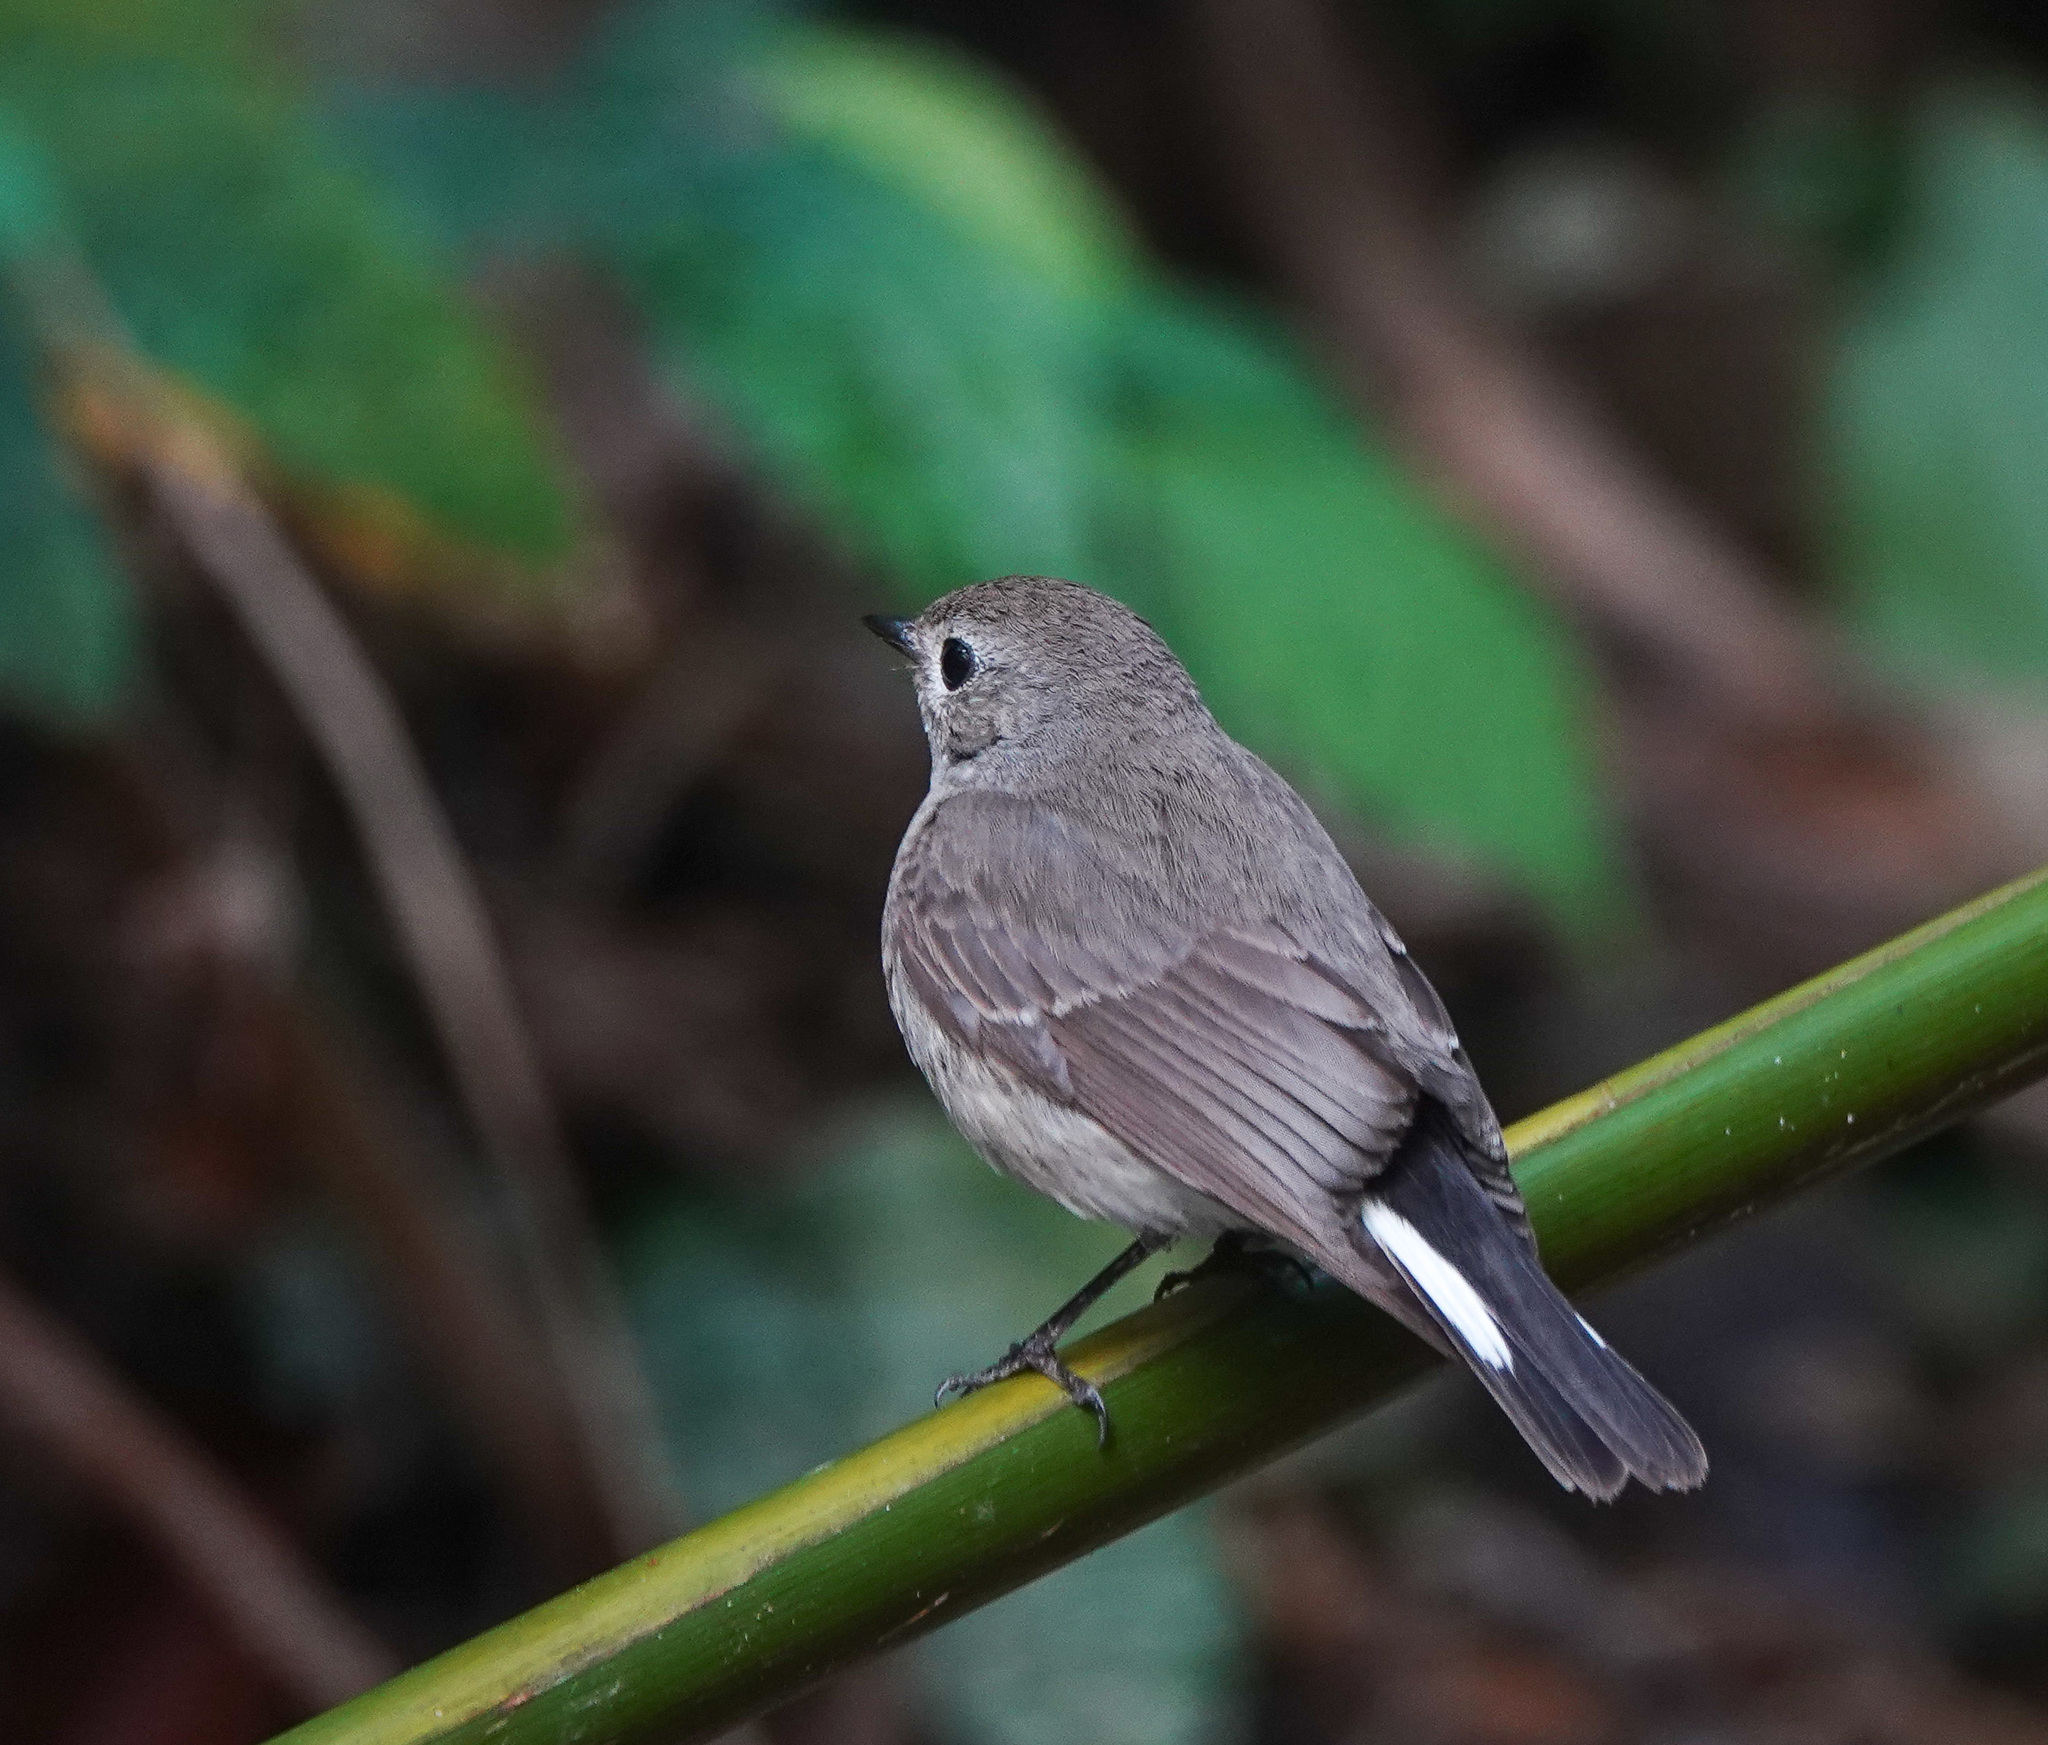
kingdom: Animalia
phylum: Chordata
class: Aves
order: Passeriformes
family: Muscicapidae
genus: Ficedula
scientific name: Ficedula albicilla
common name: Taiga flycatcher
